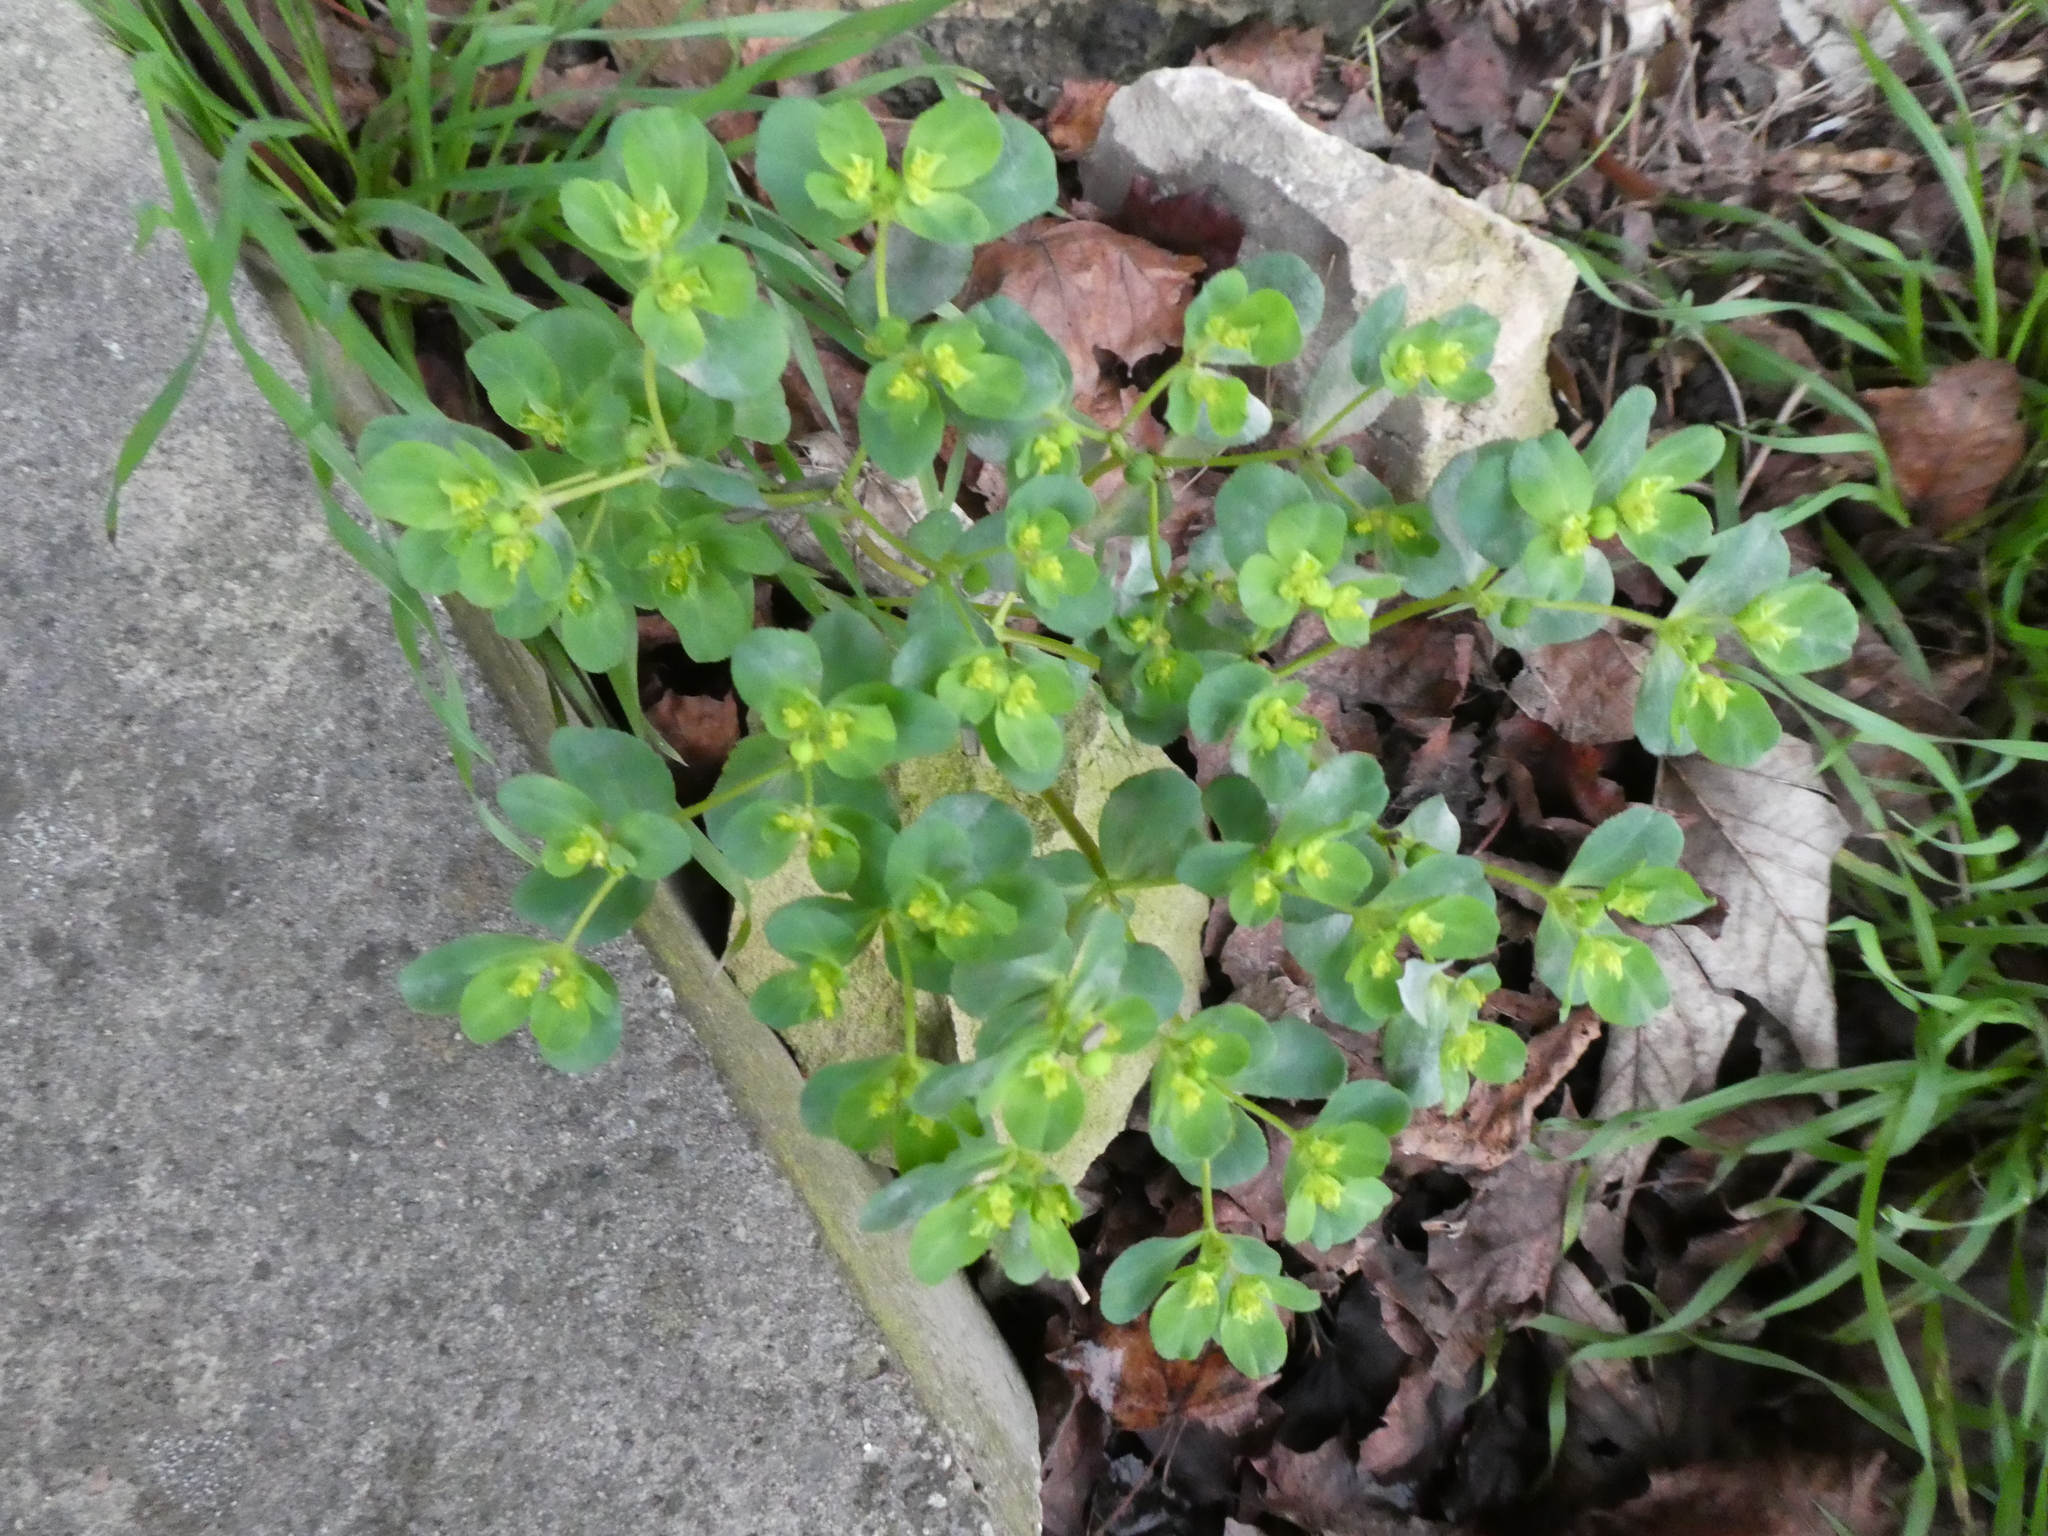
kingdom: Plantae
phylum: Tracheophyta
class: Magnoliopsida
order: Malpighiales
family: Euphorbiaceae
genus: Euphorbia
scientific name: Euphorbia helioscopia
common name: Sun spurge
